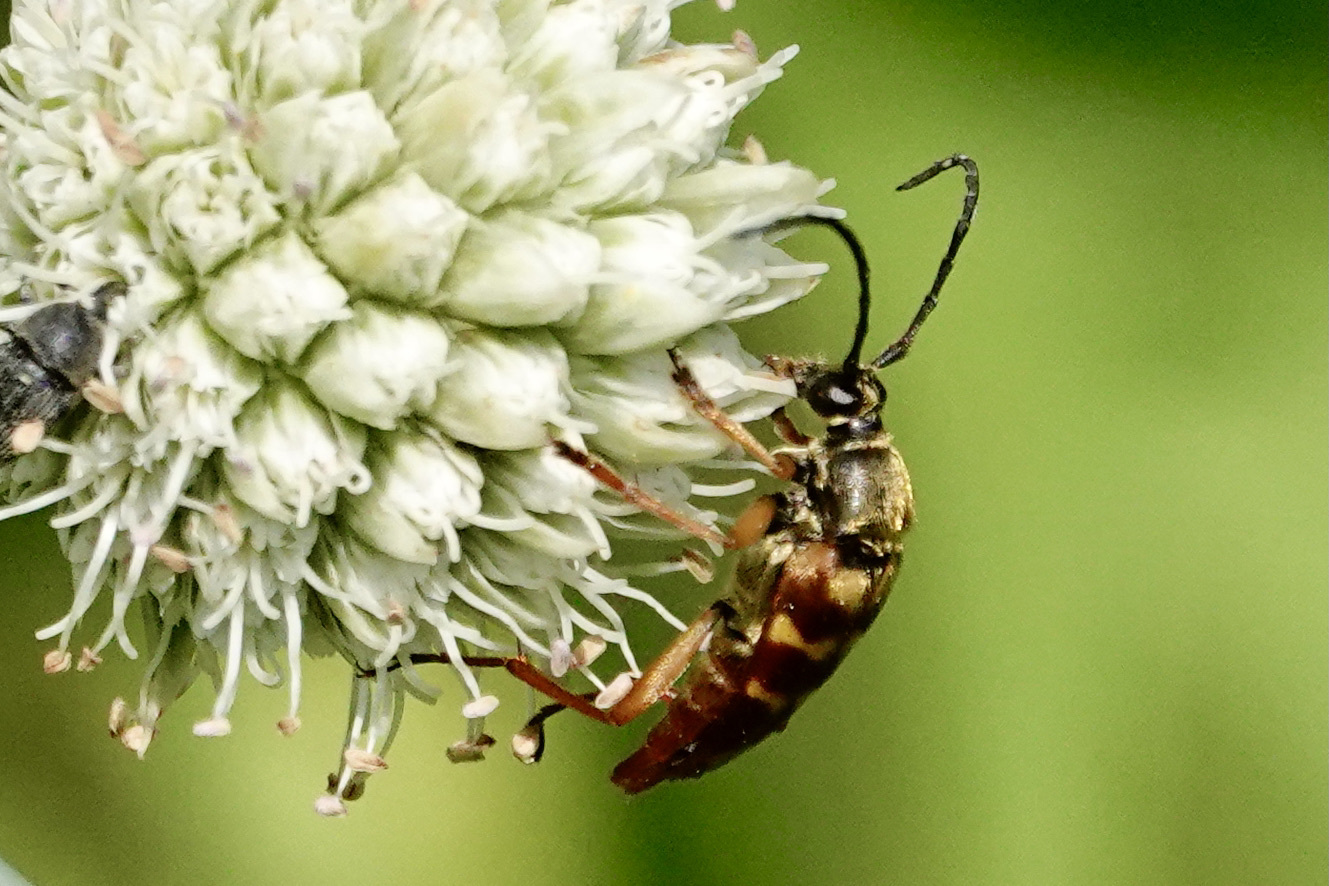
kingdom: Animalia
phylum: Arthropoda
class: Insecta
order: Coleoptera
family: Cerambycidae
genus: Typocerus
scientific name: Typocerus velutinus
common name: Banded longhorn beetle
